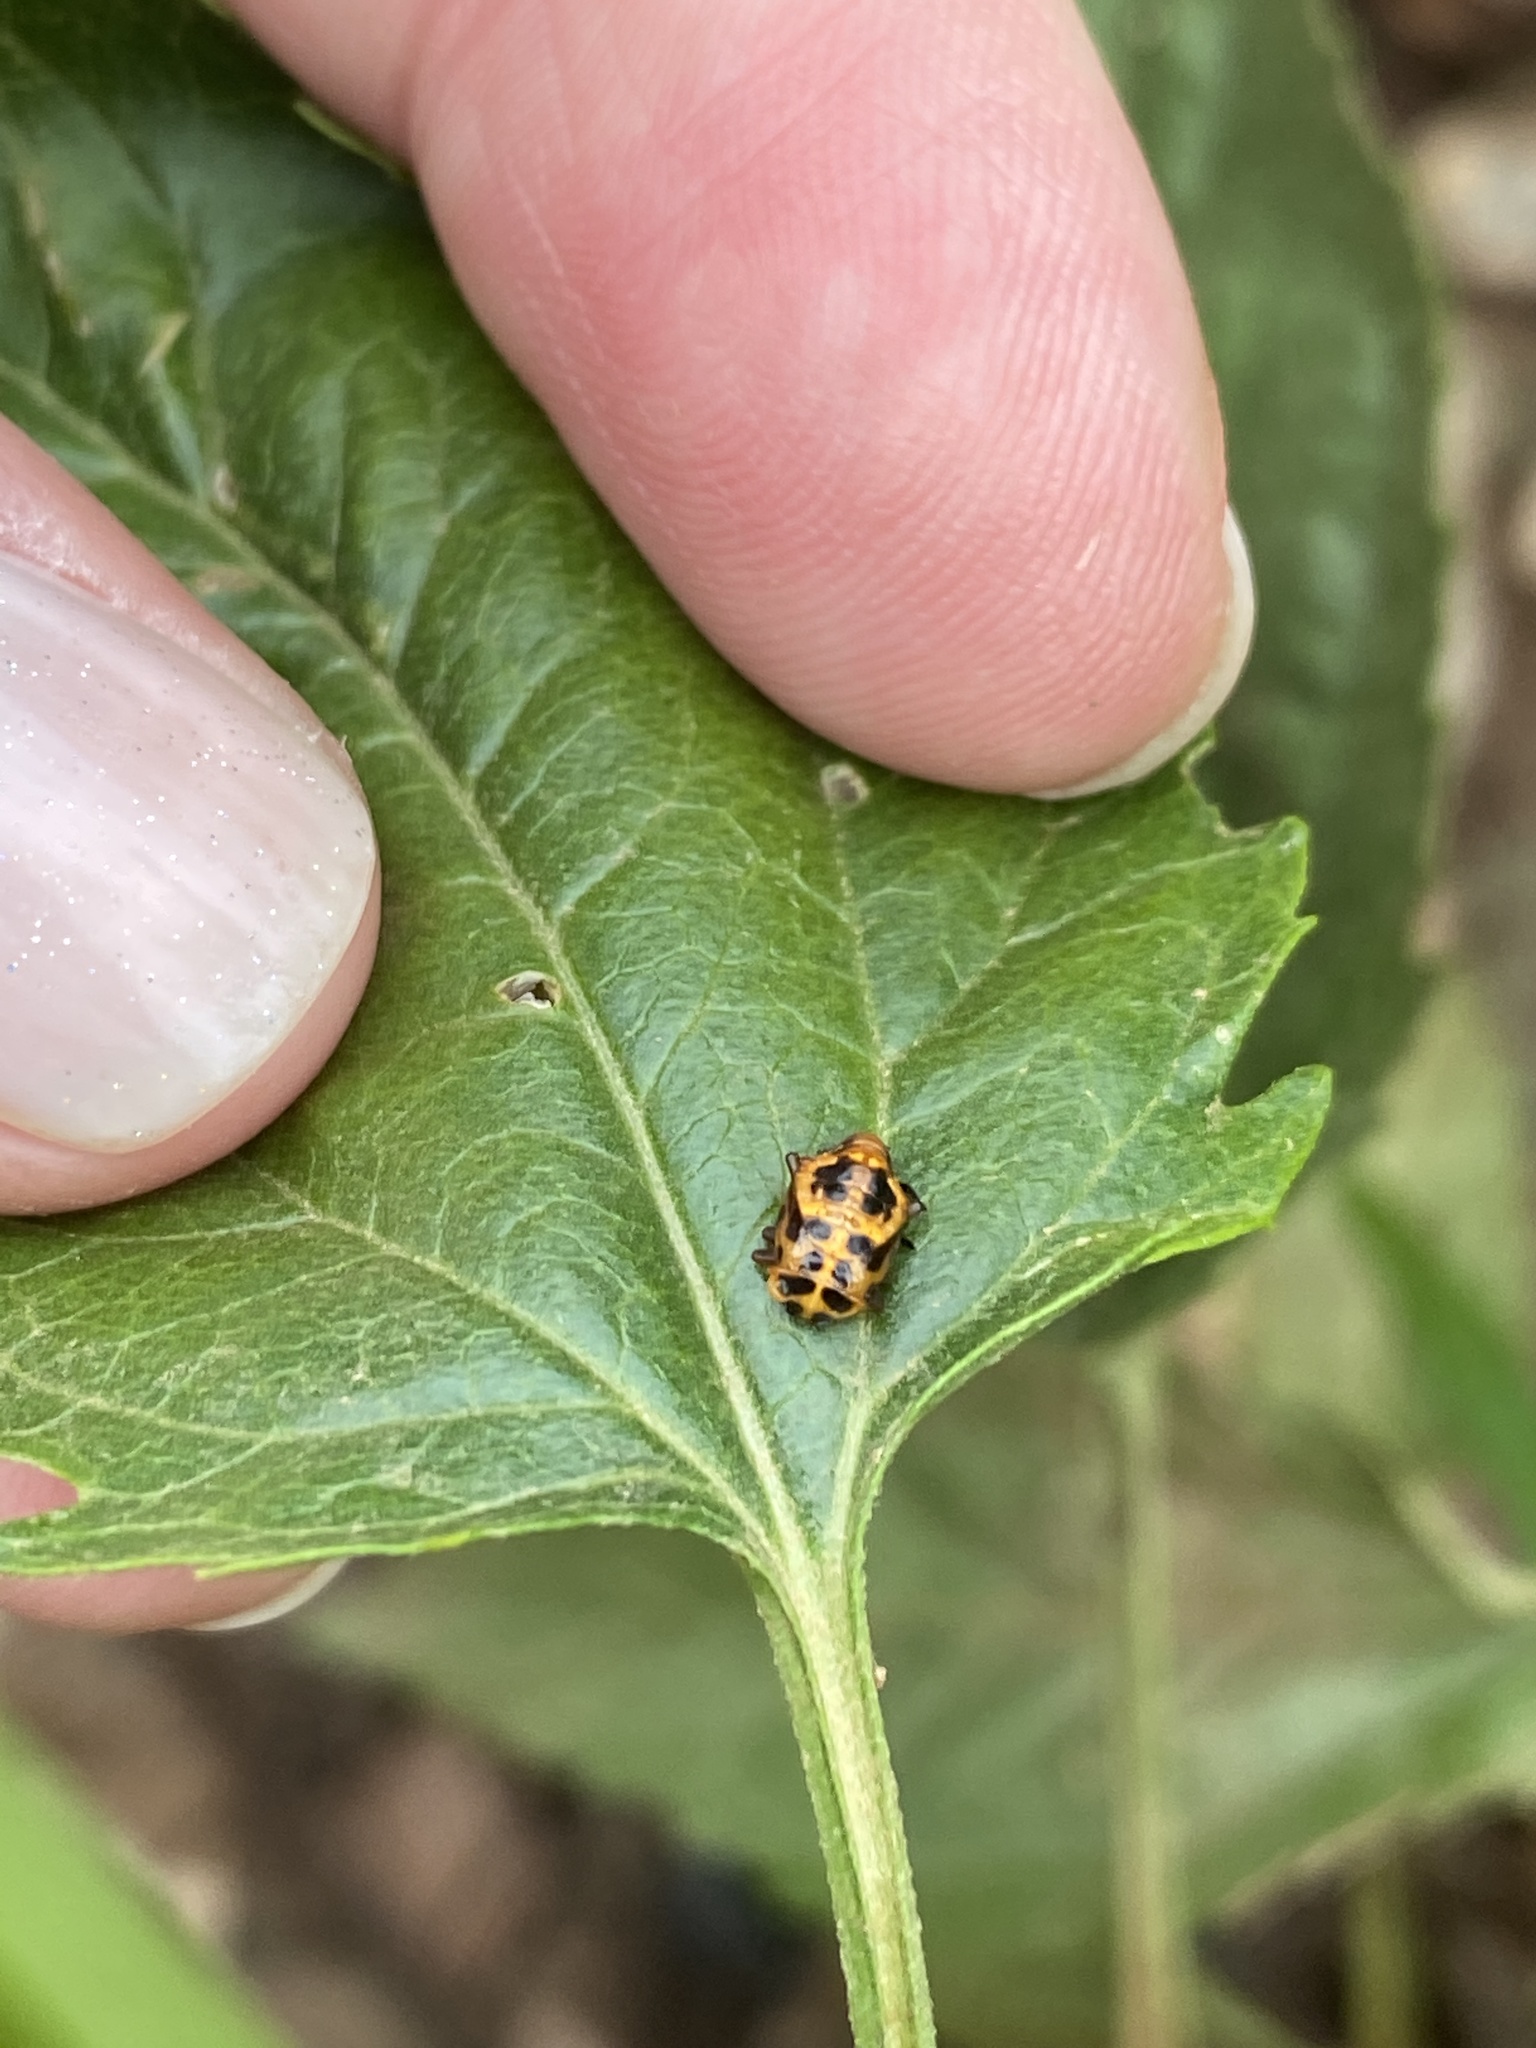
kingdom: Animalia
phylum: Arthropoda
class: Insecta
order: Coleoptera
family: Coccinellidae
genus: Harmonia
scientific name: Harmonia axyridis
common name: Harlequin ladybird
